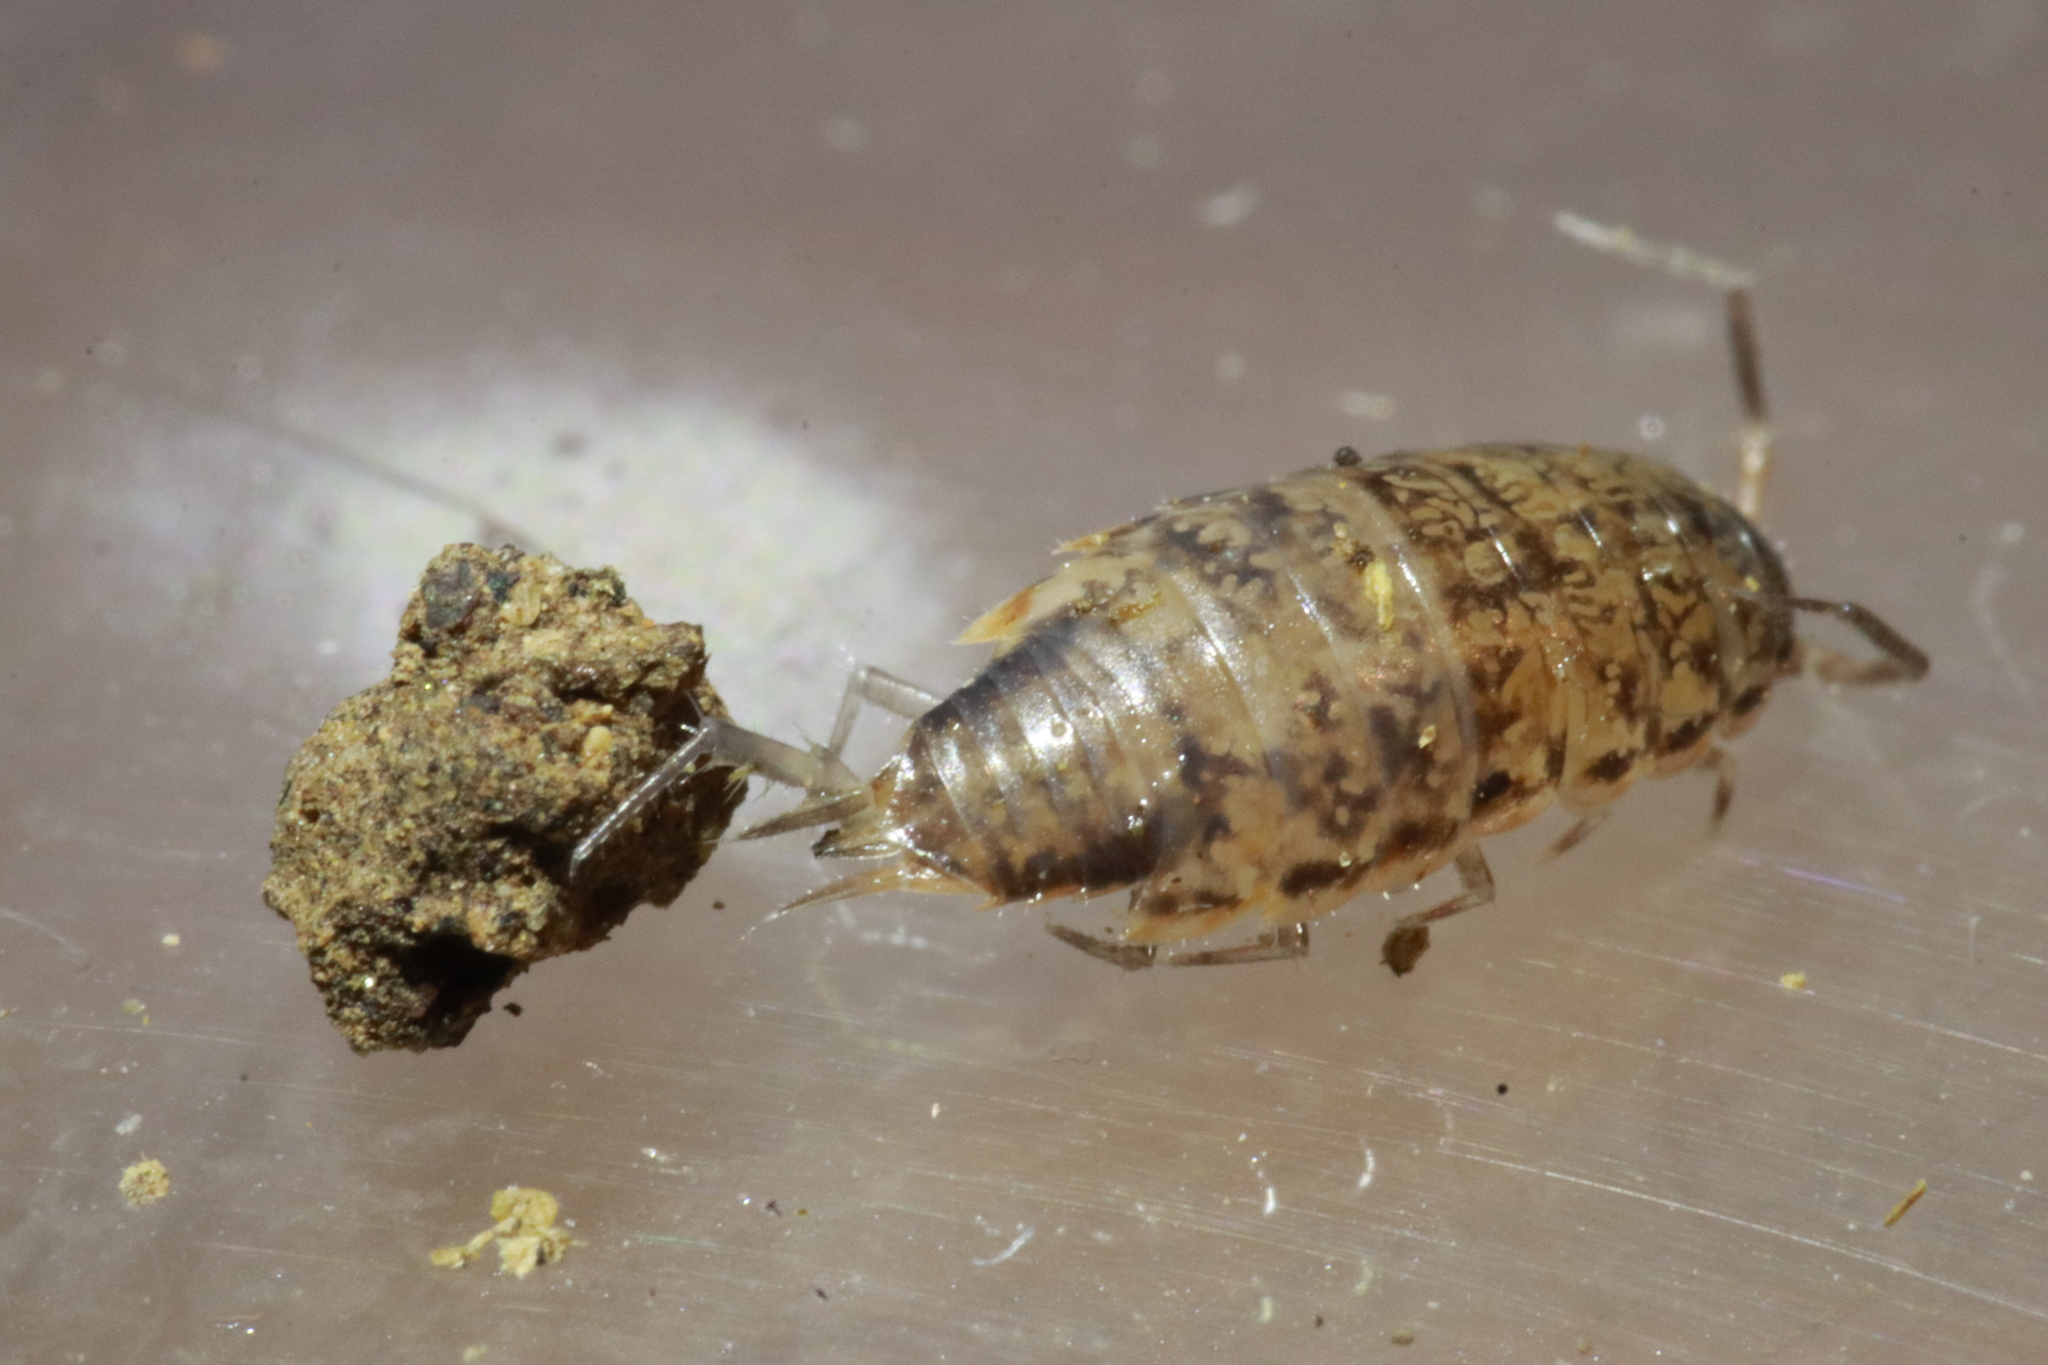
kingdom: Animalia
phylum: Arthropoda
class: Malacostraca
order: Isopoda
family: Philosciidae
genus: Chaetophiloscia
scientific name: Chaetophiloscia elongata
